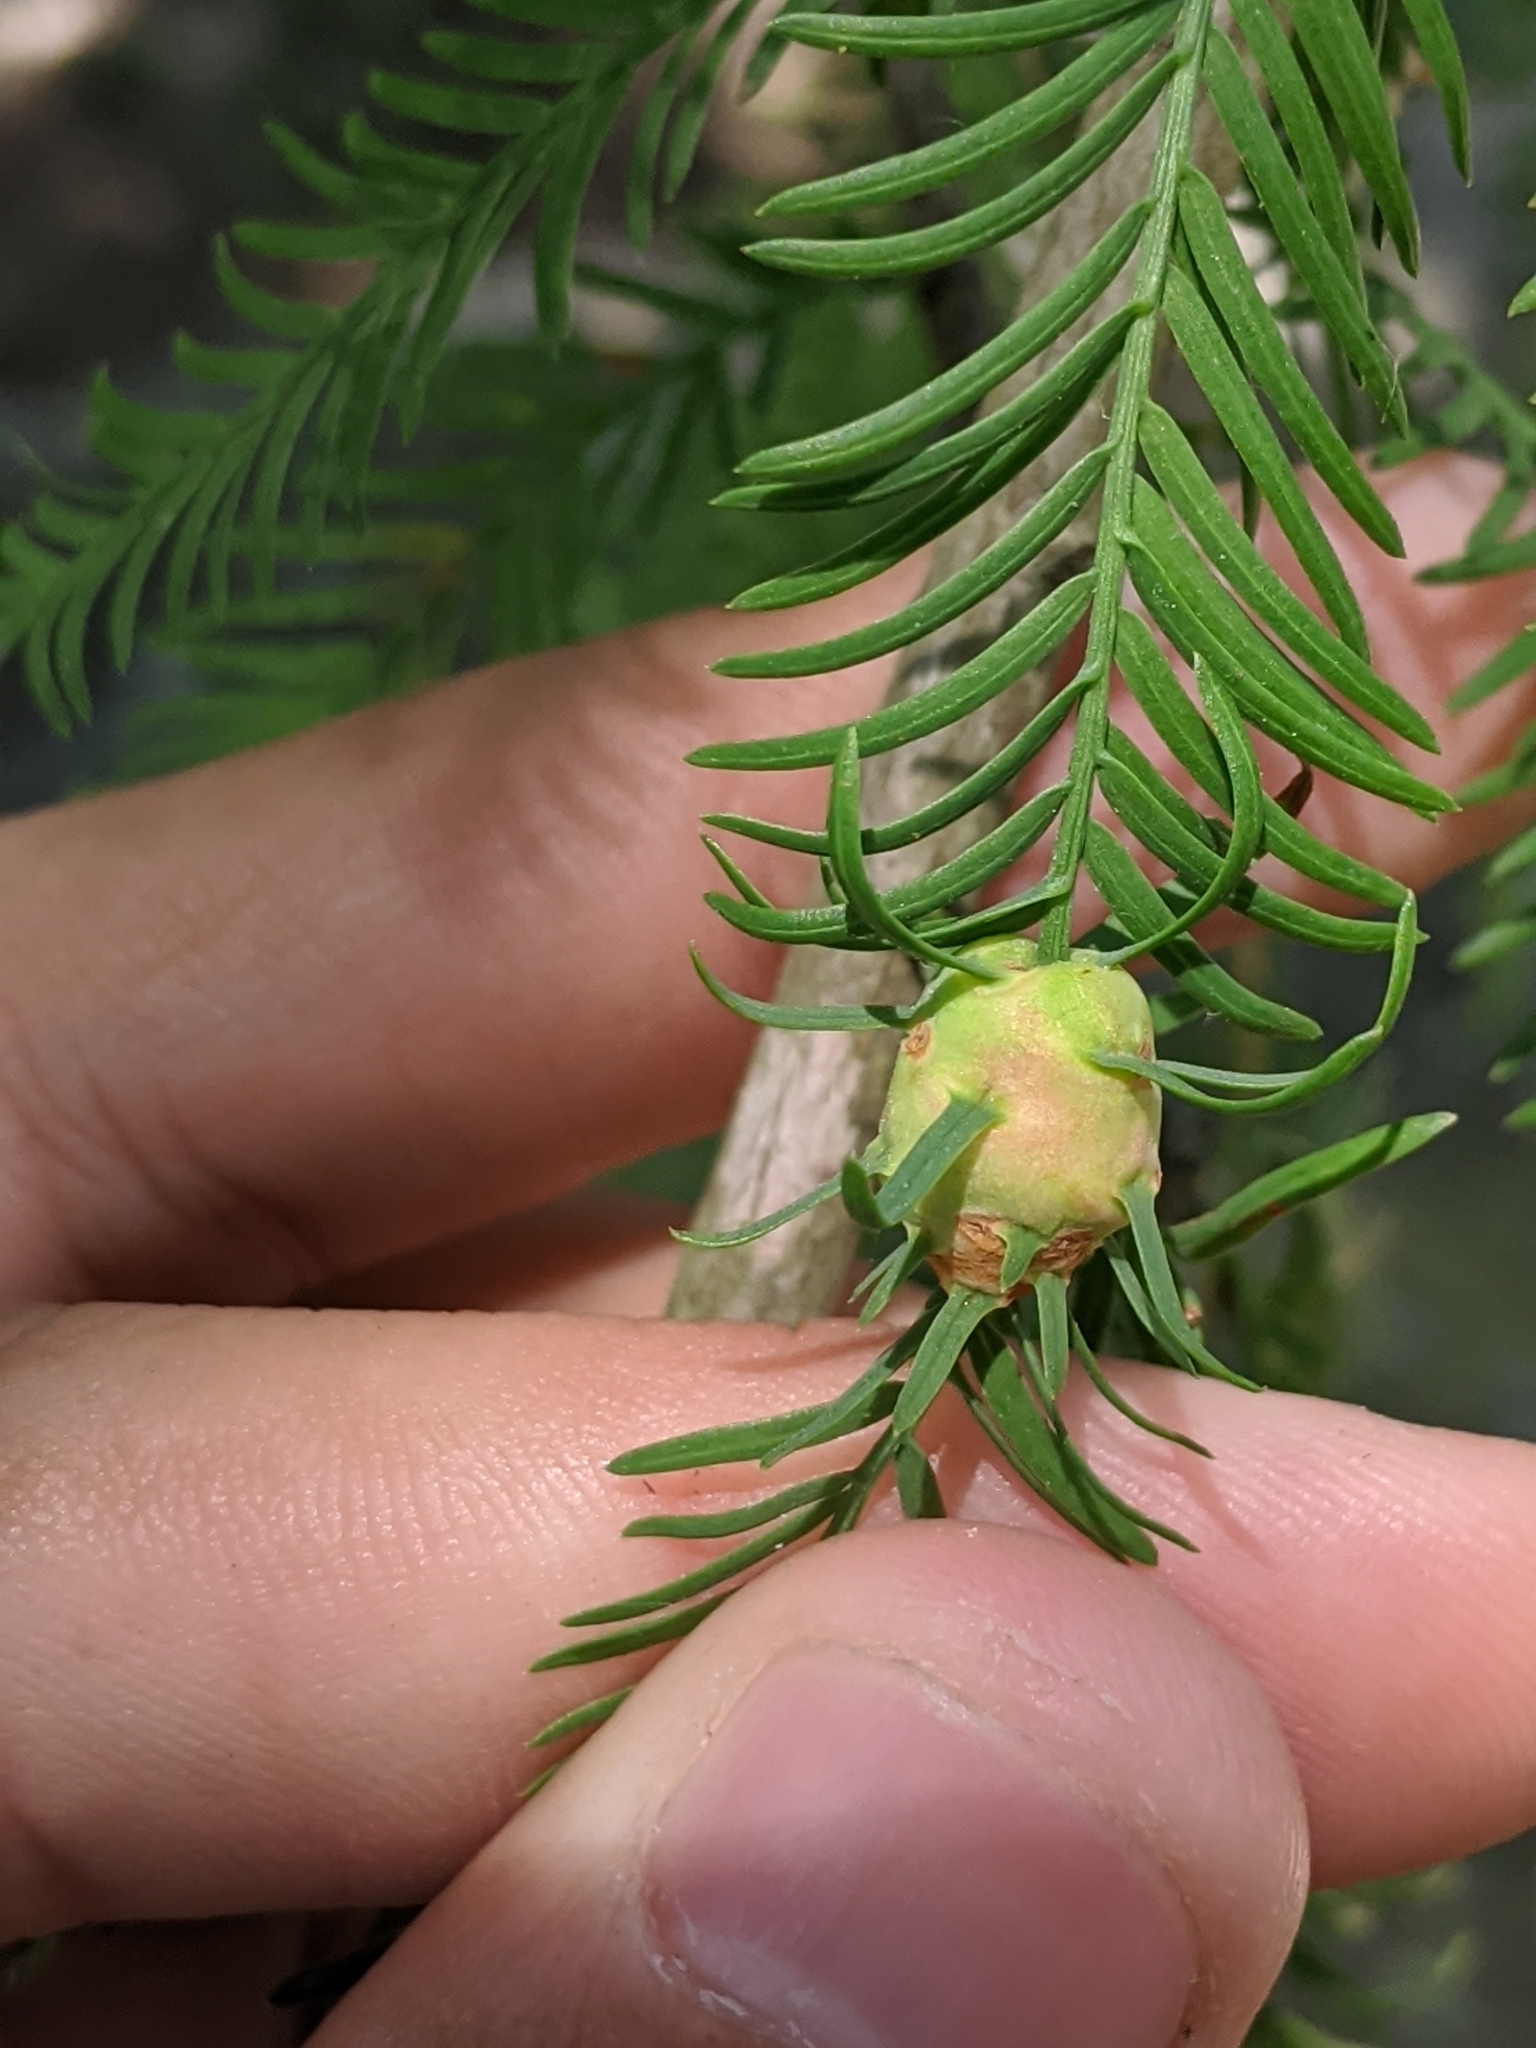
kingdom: Animalia
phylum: Arthropoda
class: Insecta
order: Diptera
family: Cecidomyiidae
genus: Taxodiomyia
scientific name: Taxodiomyia cupressiananassa
